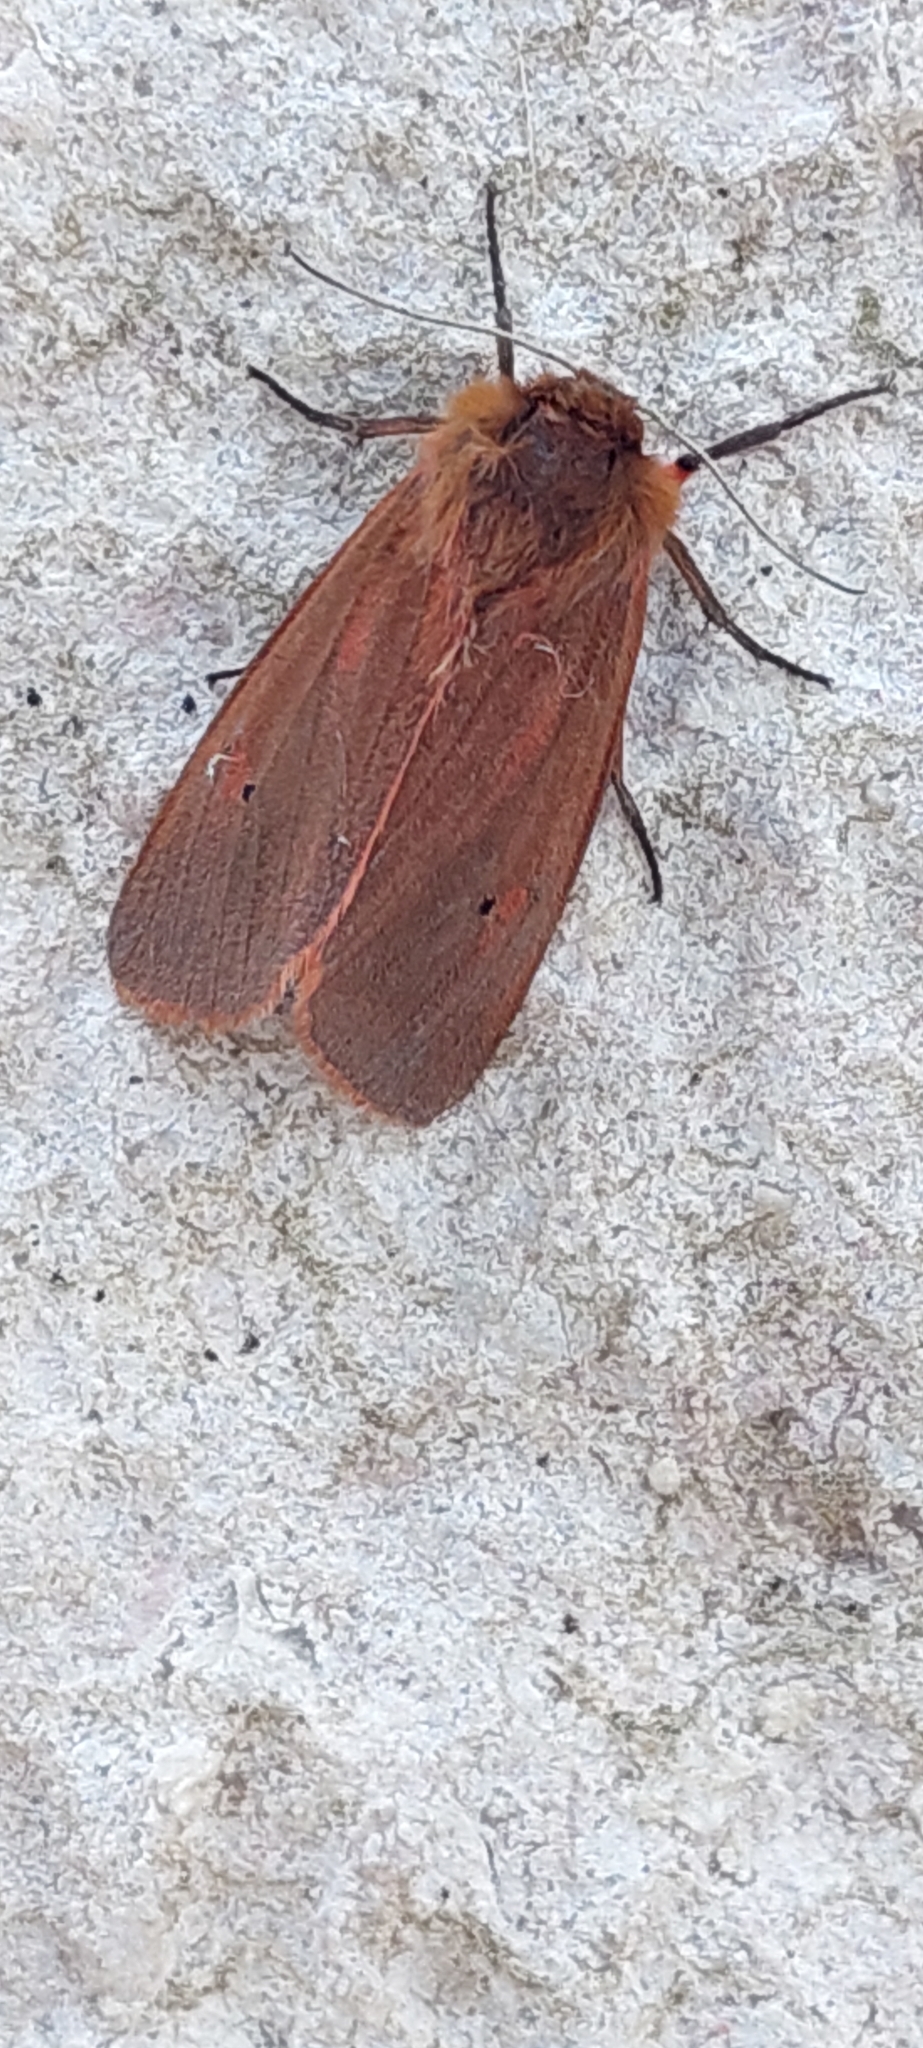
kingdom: Animalia
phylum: Arthropoda
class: Insecta
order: Lepidoptera
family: Erebidae
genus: Phragmatobia
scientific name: Phragmatobia fuliginosa
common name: Ruby tiger
